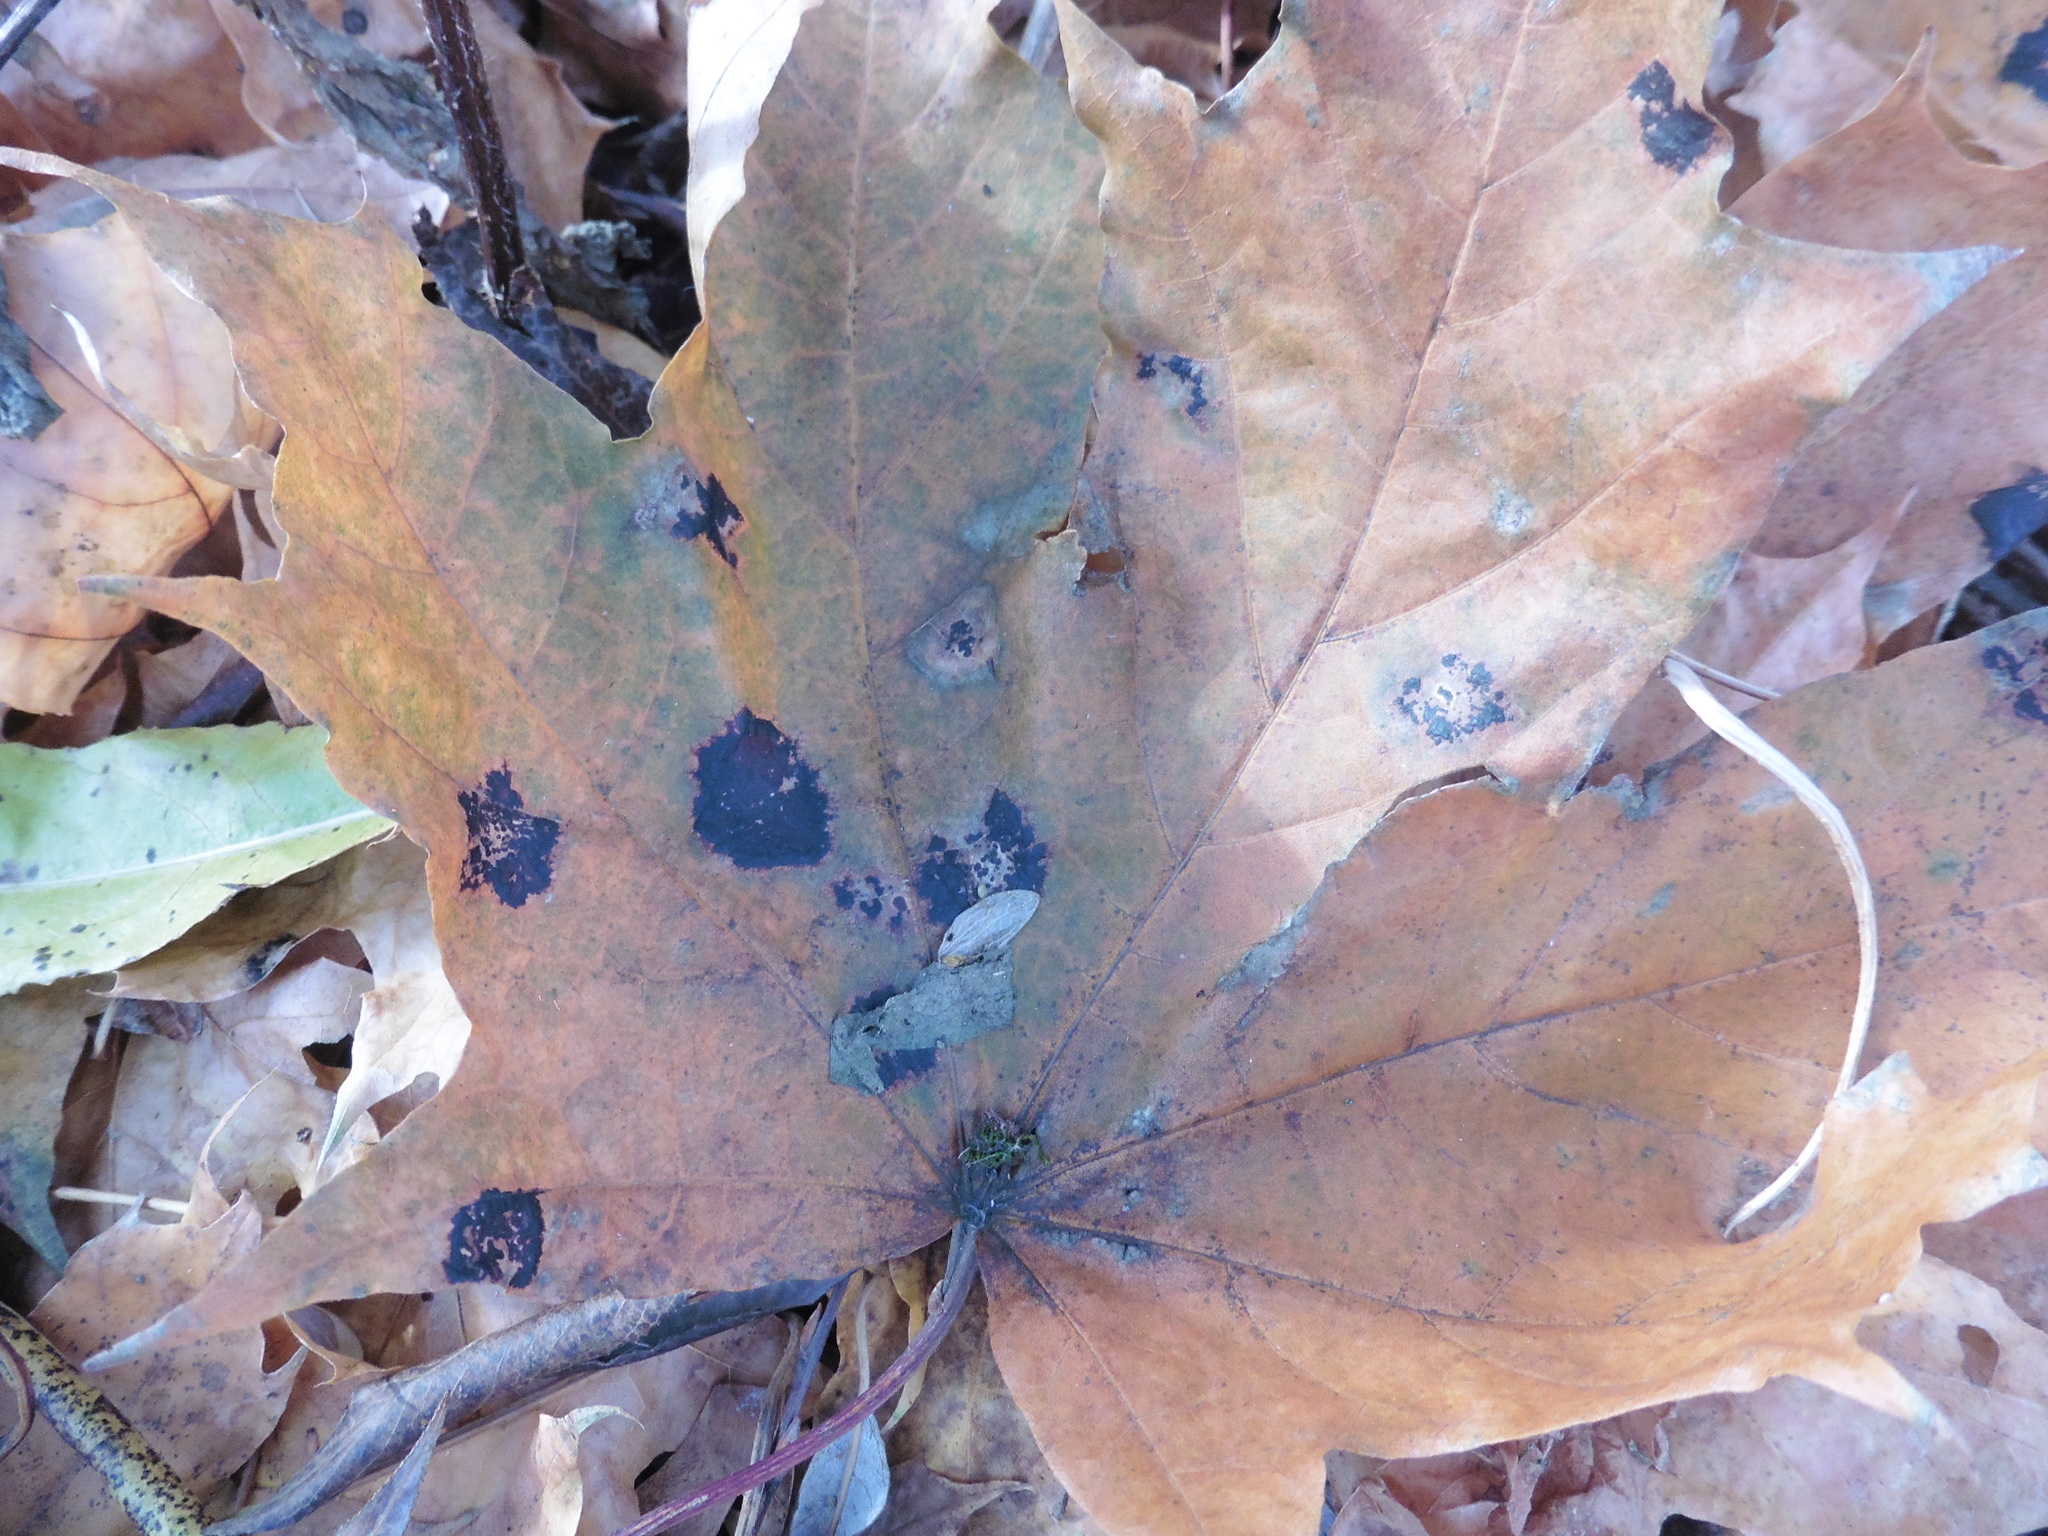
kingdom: Fungi
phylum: Ascomycota
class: Leotiomycetes
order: Rhytismatales
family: Rhytismataceae
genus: Rhytisma
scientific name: Rhytisma acerinum
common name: European tar spot
